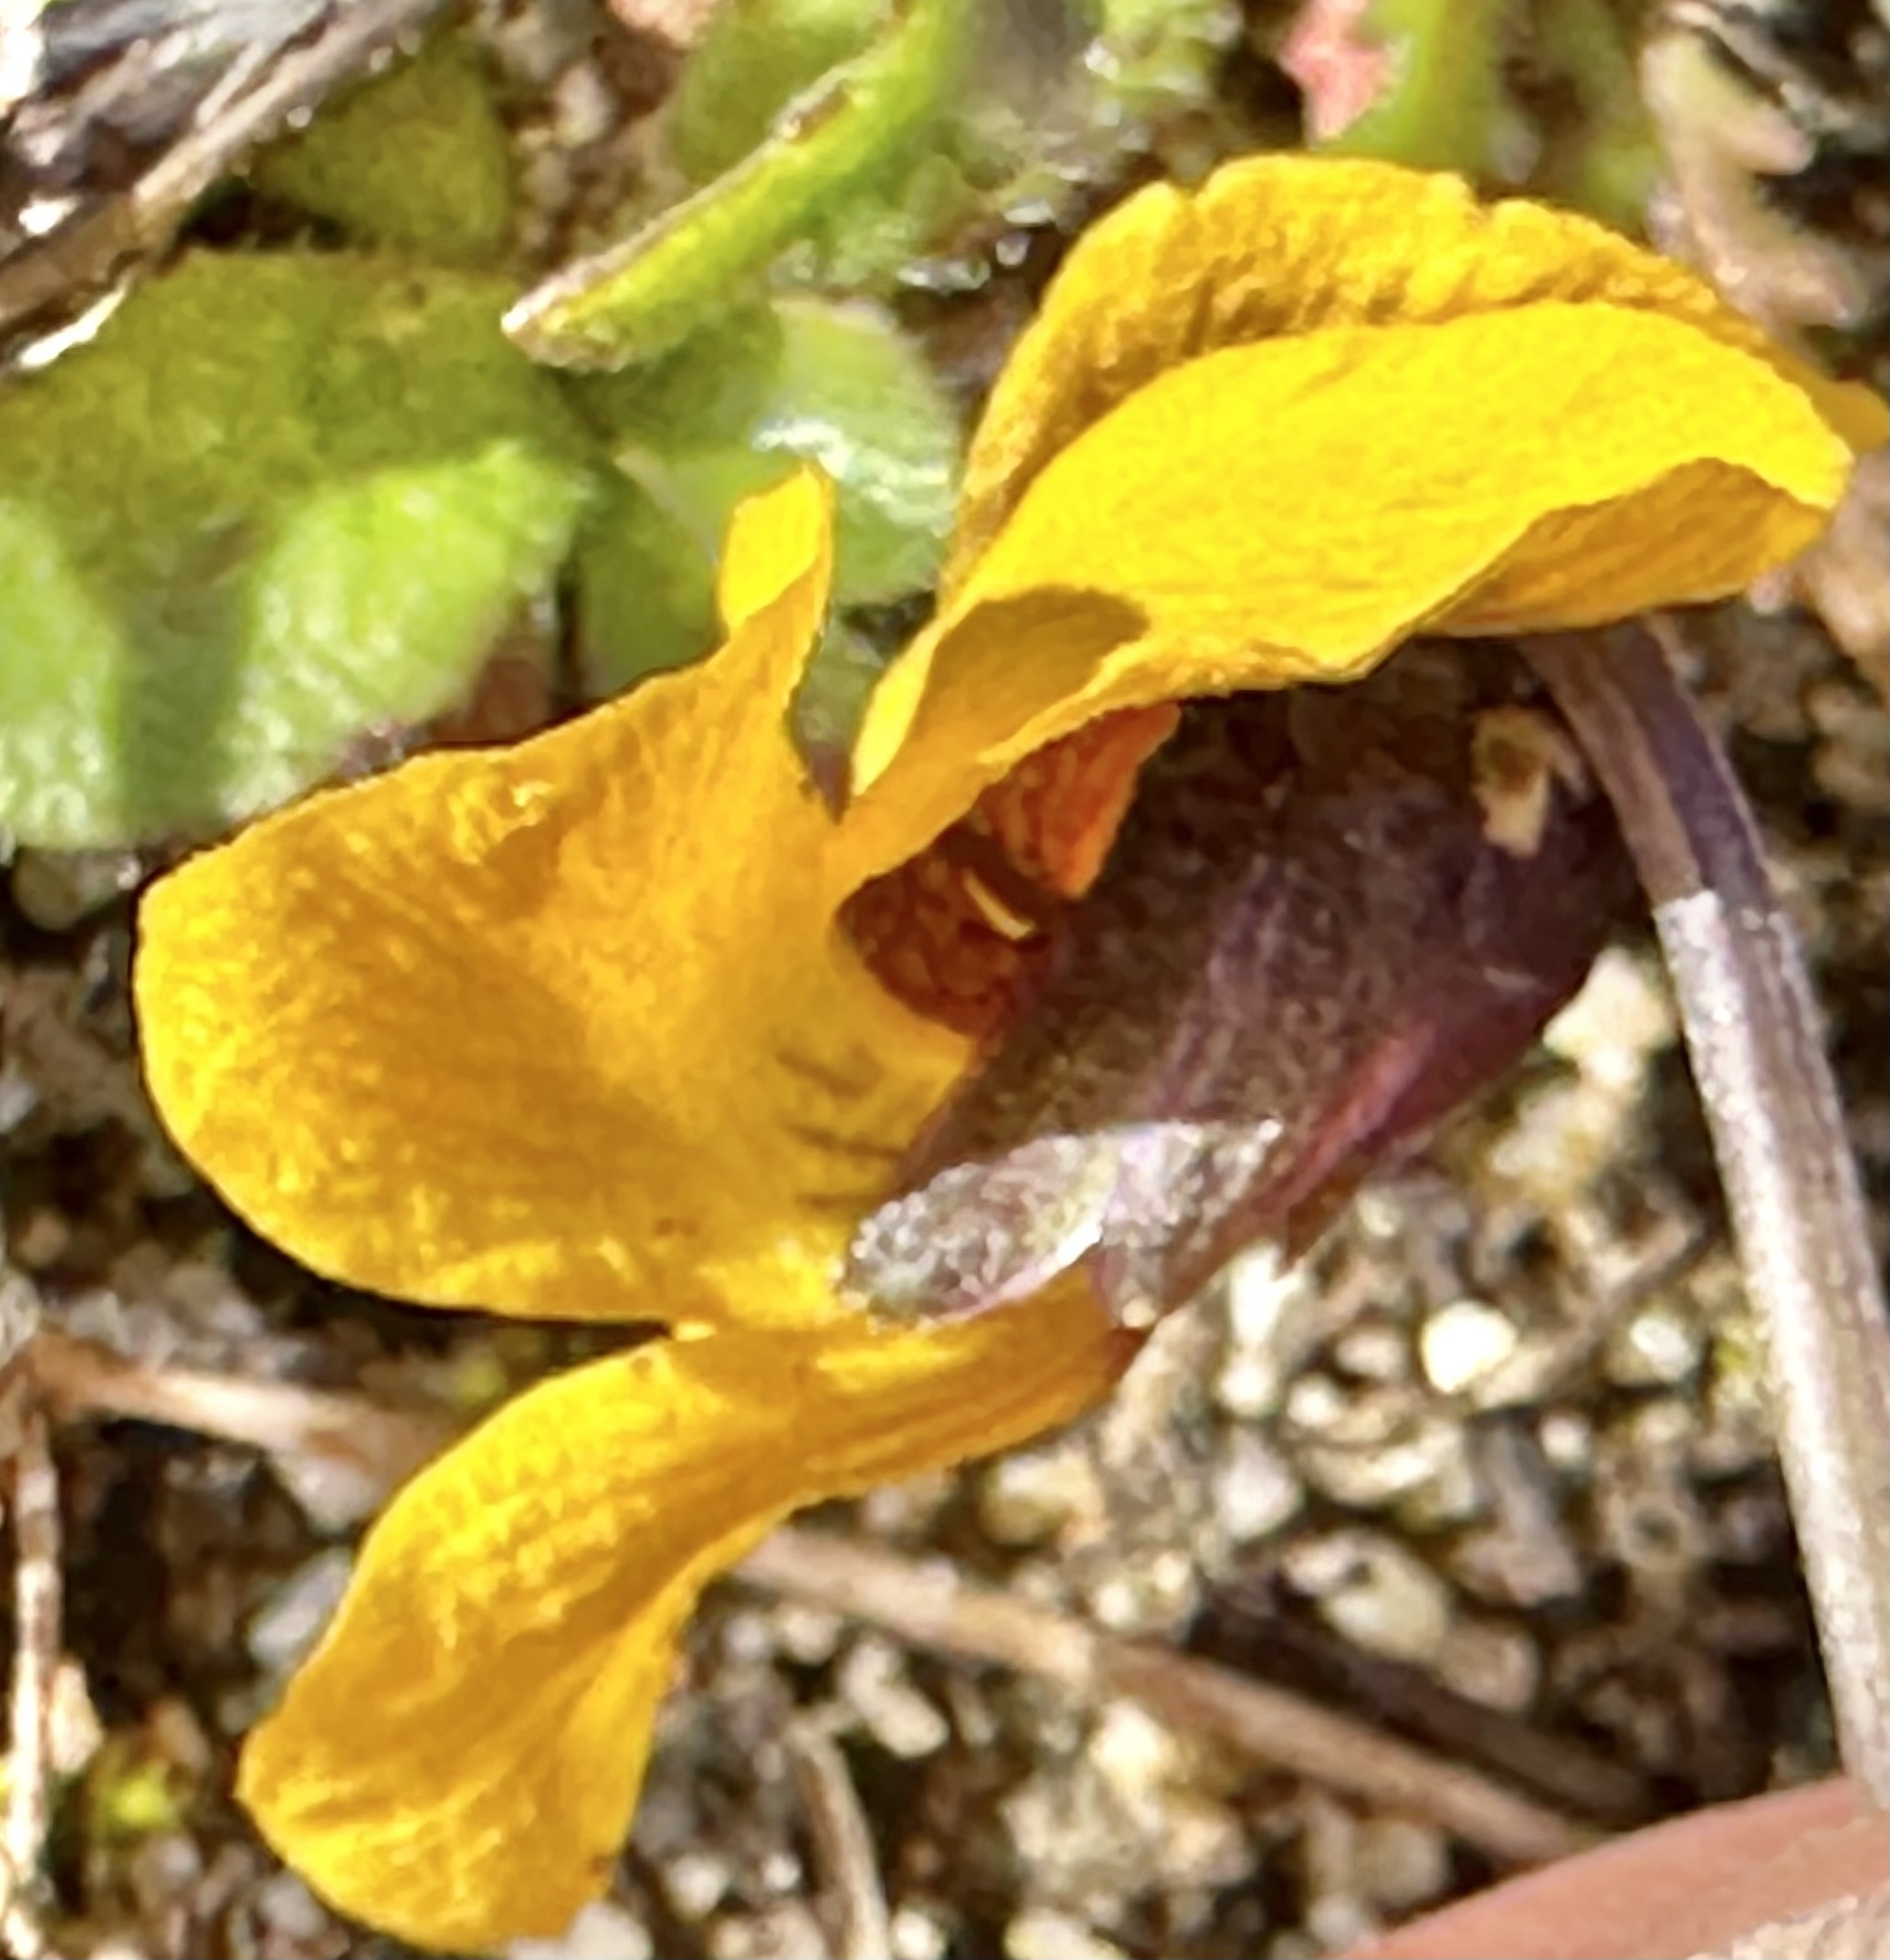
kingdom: Plantae
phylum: Tracheophyta
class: Magnoliopsida
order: Malpighiales
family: Violaceae
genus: Viola
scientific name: Viola pedunculata
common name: California golden violet
